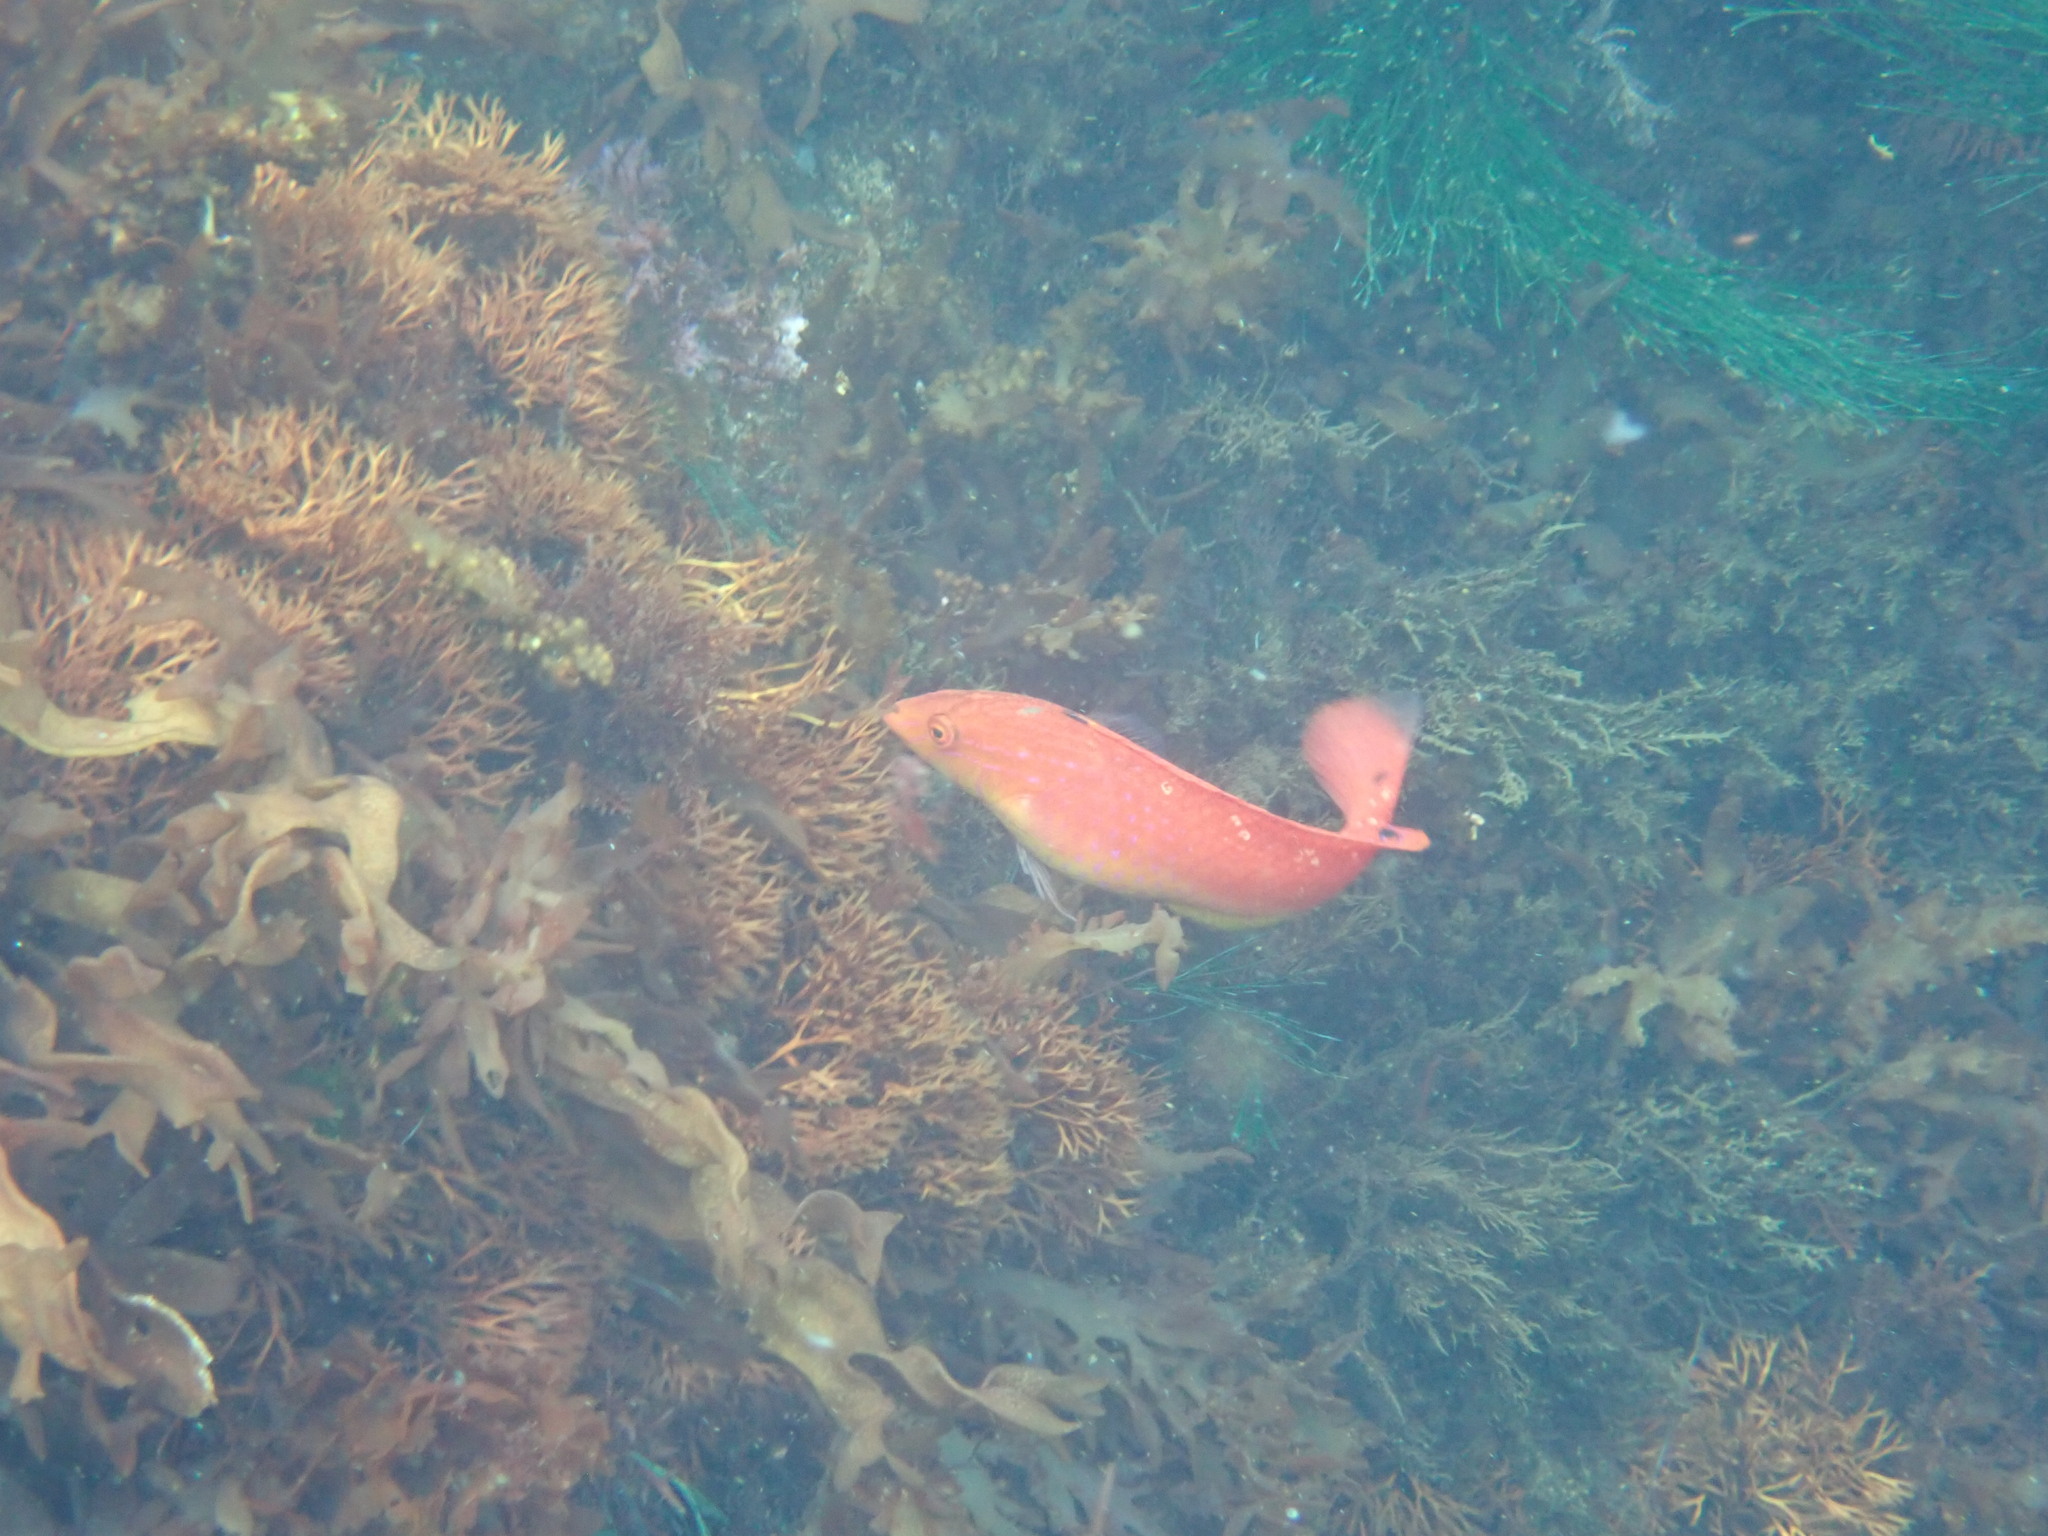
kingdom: Animalia
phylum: Chordata
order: Perciformes
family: Labridae
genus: Suezichthys
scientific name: Suezichthys ornatus
